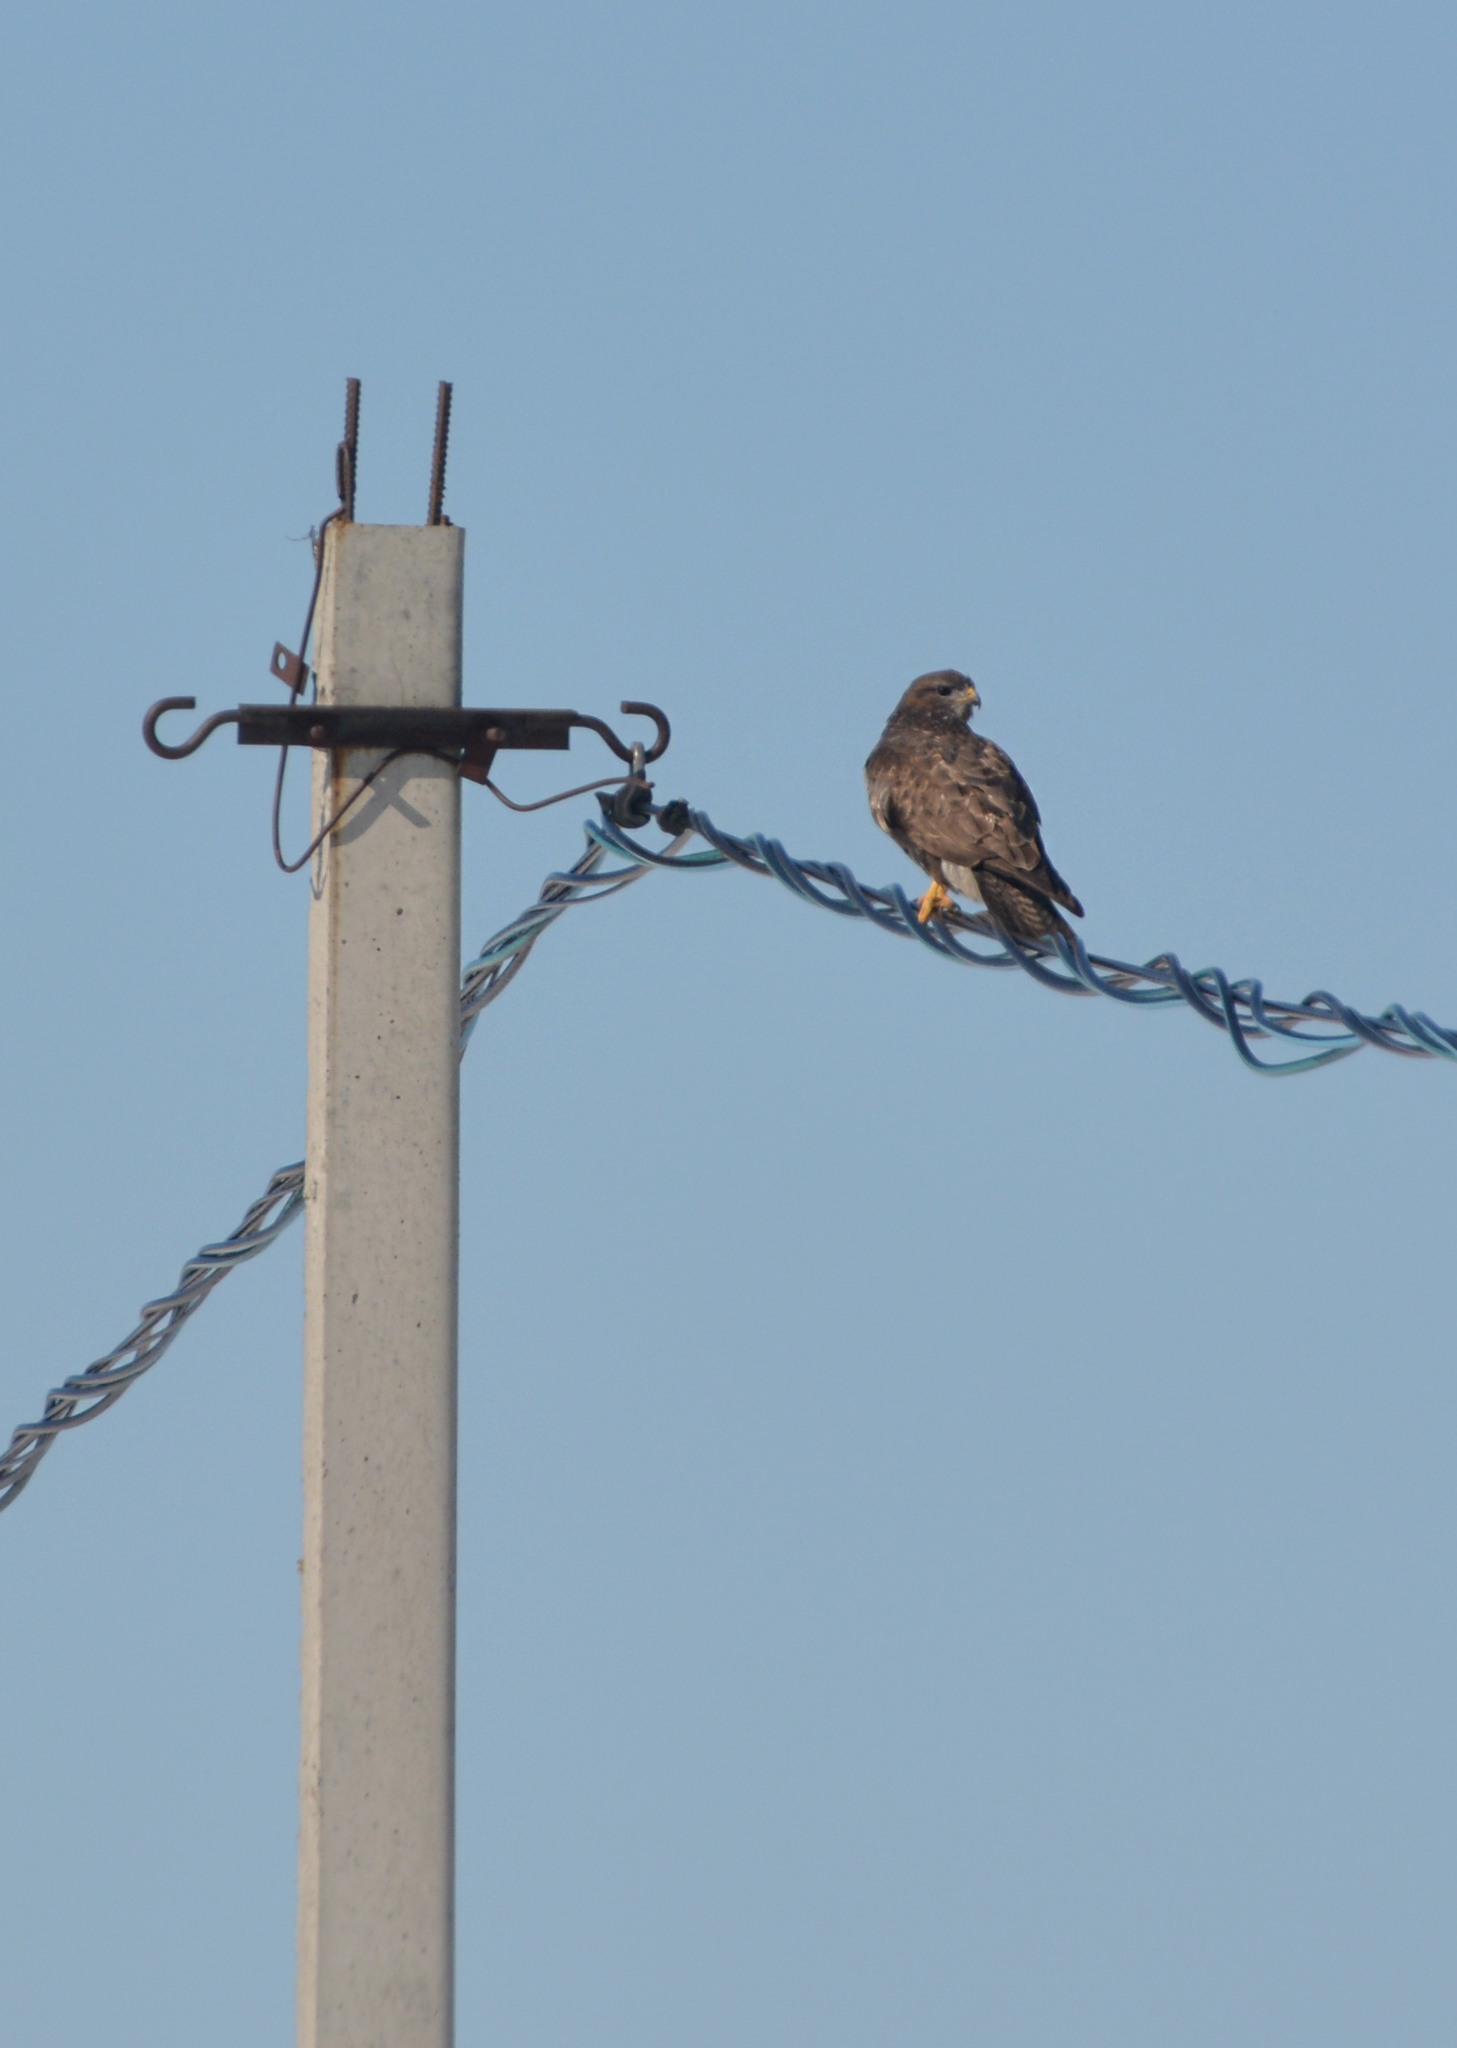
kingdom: Animalia
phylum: Chordata
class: Aves
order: Accipitriformes
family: Accipitridae
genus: Buteo
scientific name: Buteo buteo
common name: Common buzzard
